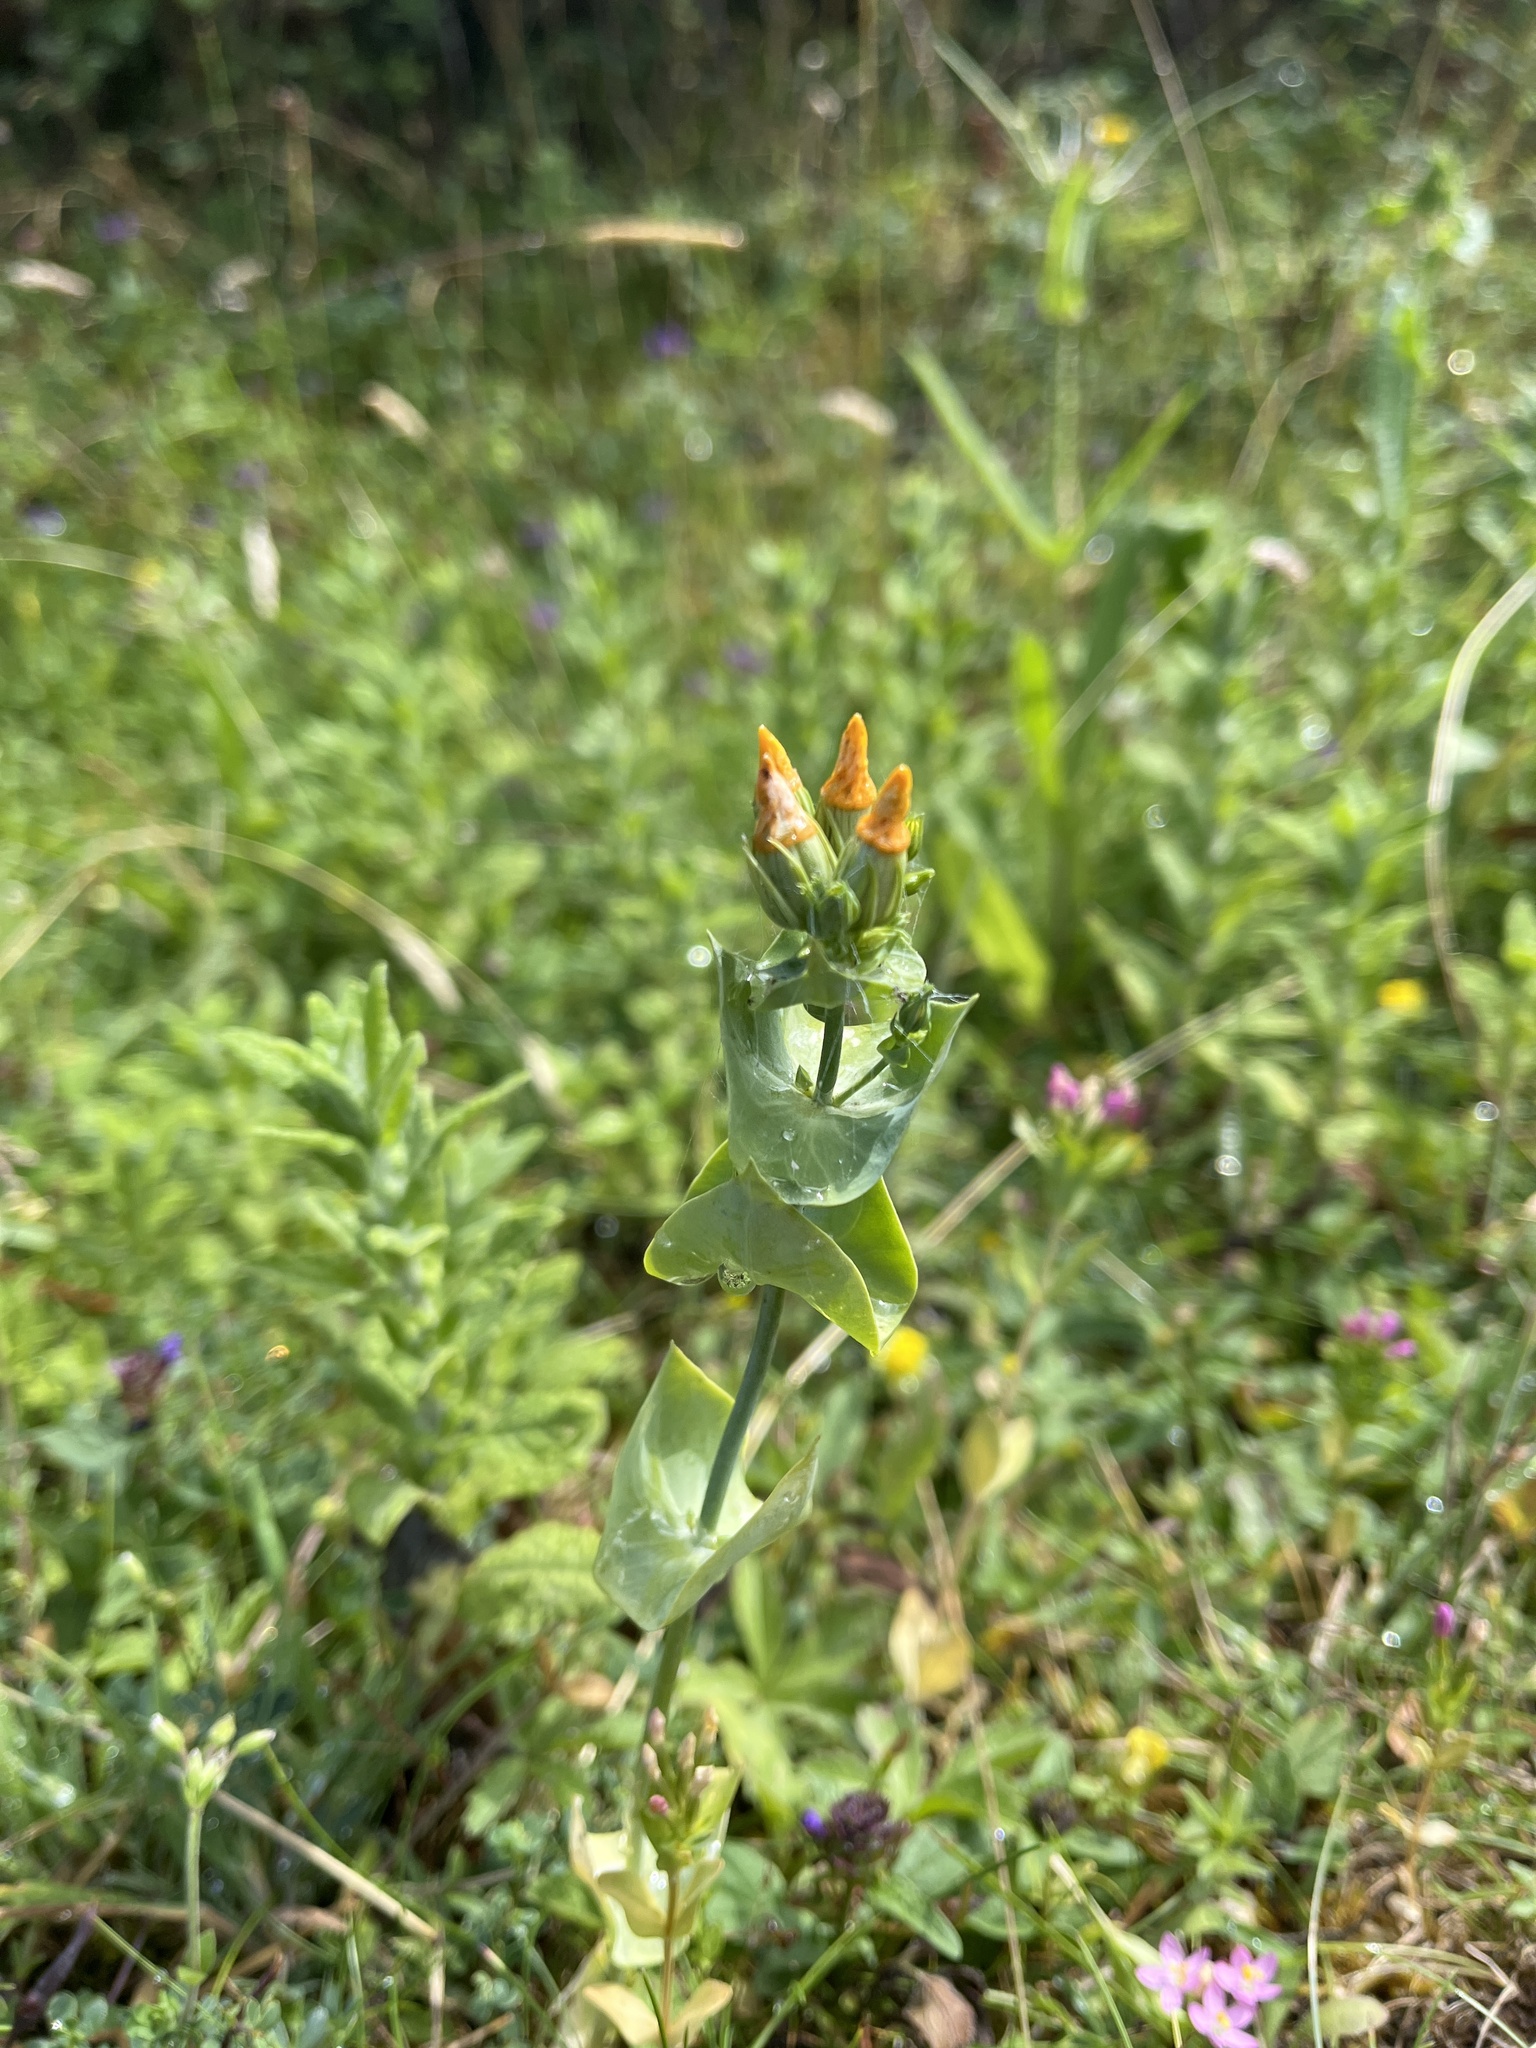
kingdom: Plantae
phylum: Tracheophyta
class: Magnoliopsida
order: Gentianales
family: Gentianaceae
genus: Blackstonia
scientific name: Blackstonia perfoliata
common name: Yellow-wort
